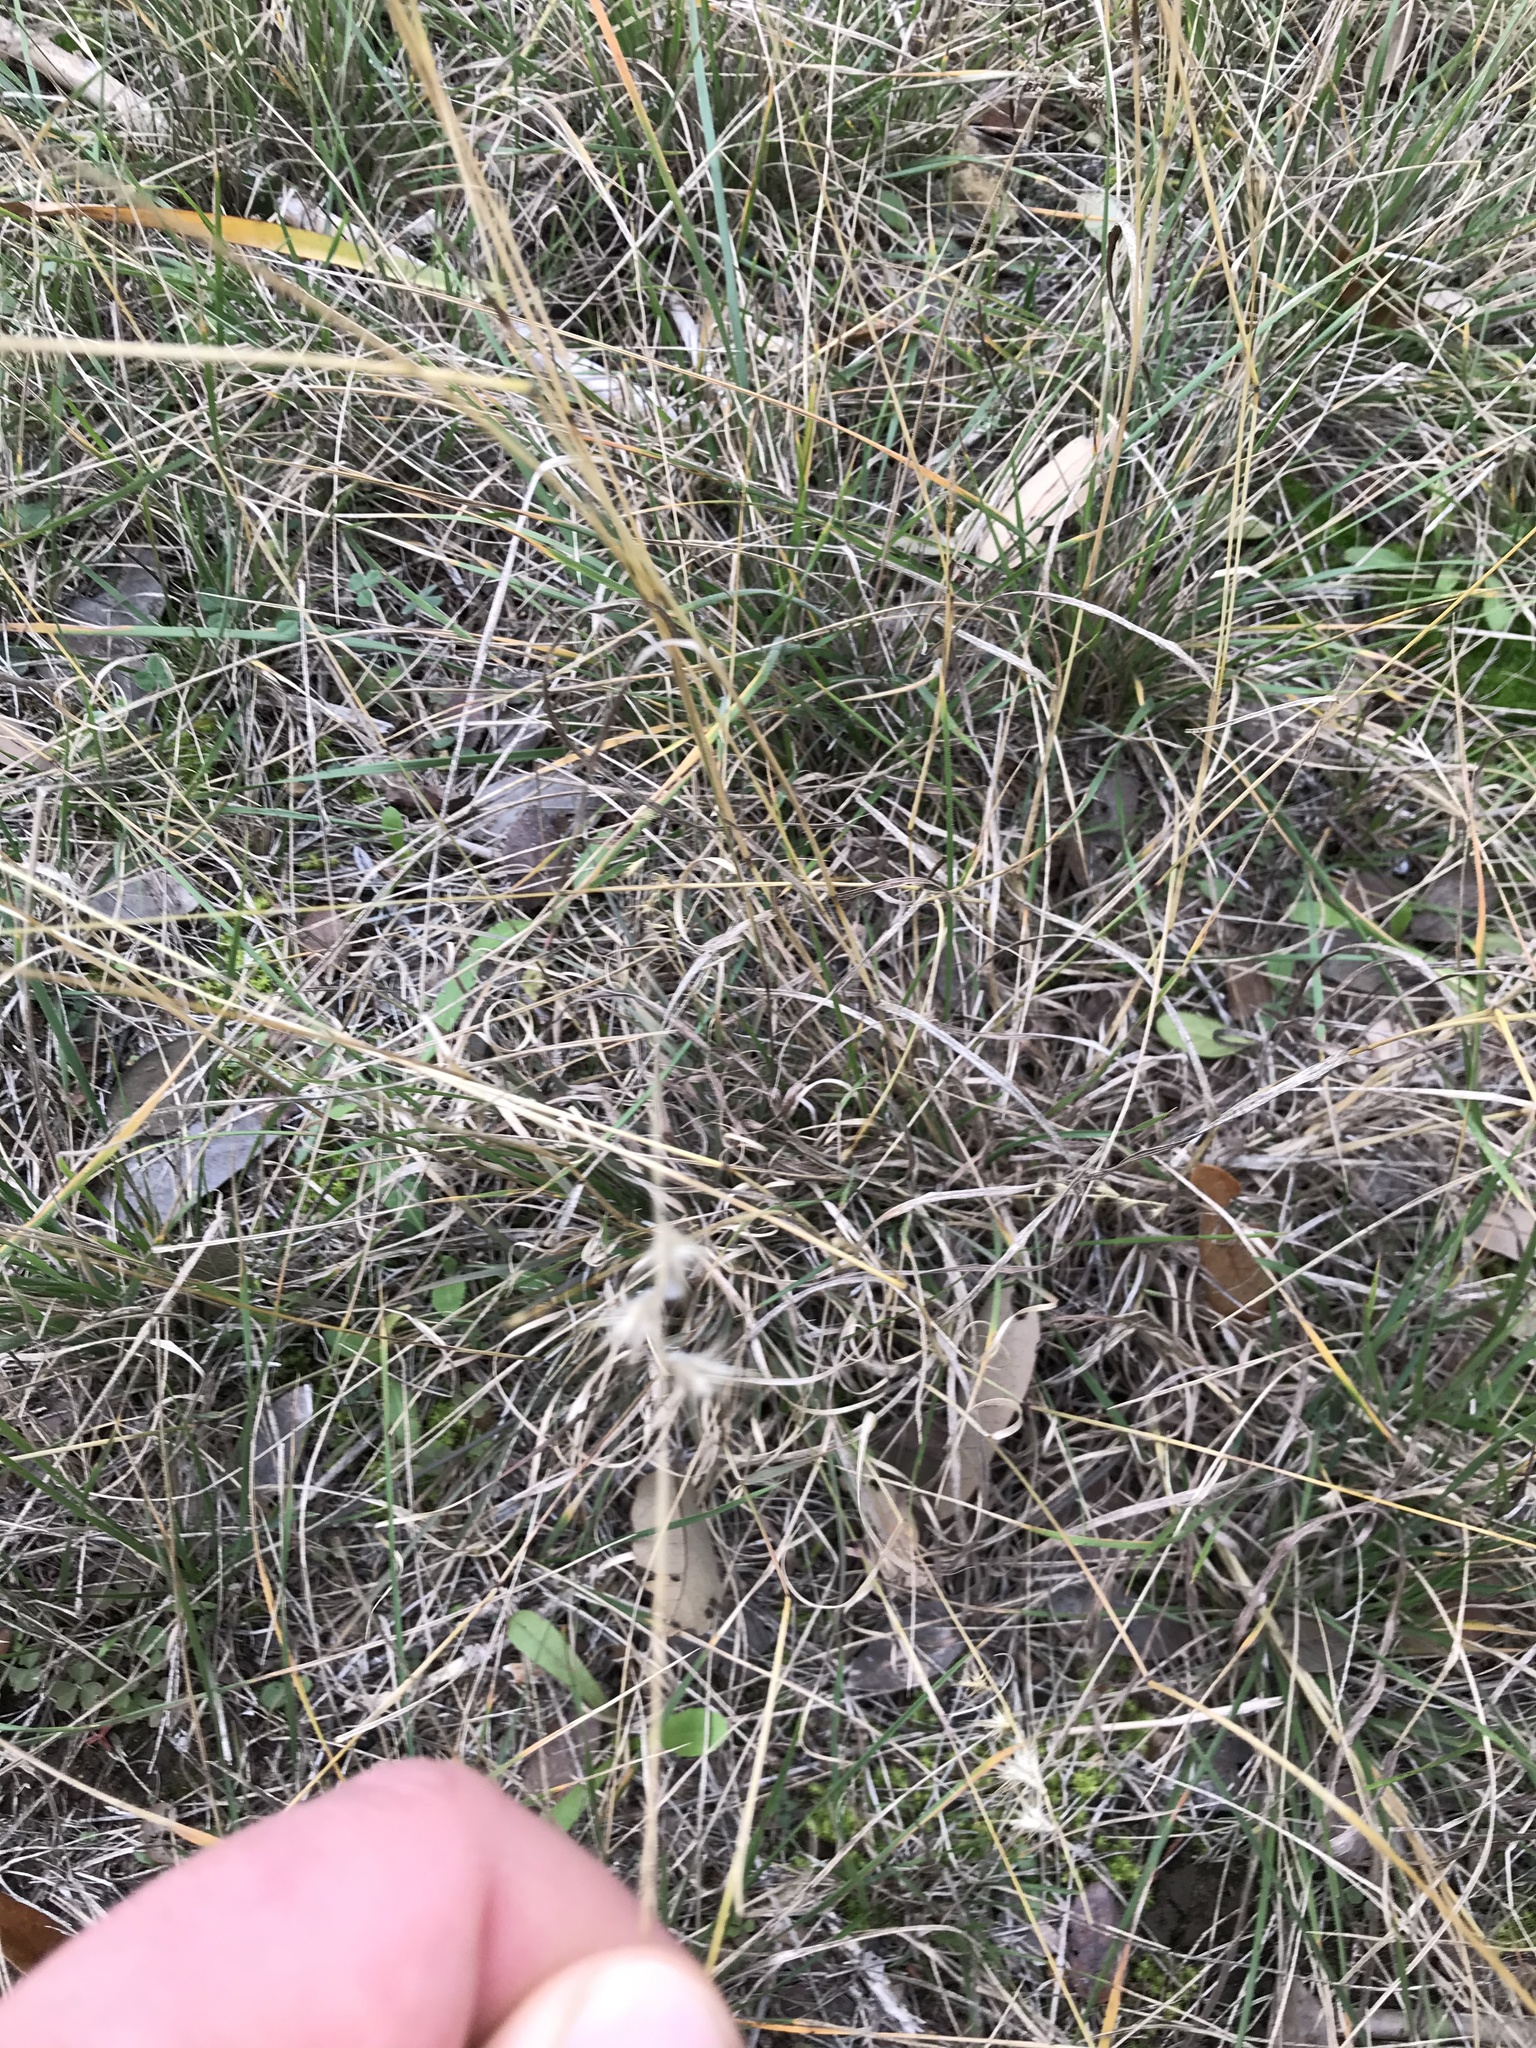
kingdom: Plantae
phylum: Tracheophyta
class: Liliopsida
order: Poales
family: Poaceae
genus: Bouteloua
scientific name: Bouteloua rigidiseta
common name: Texas grama
